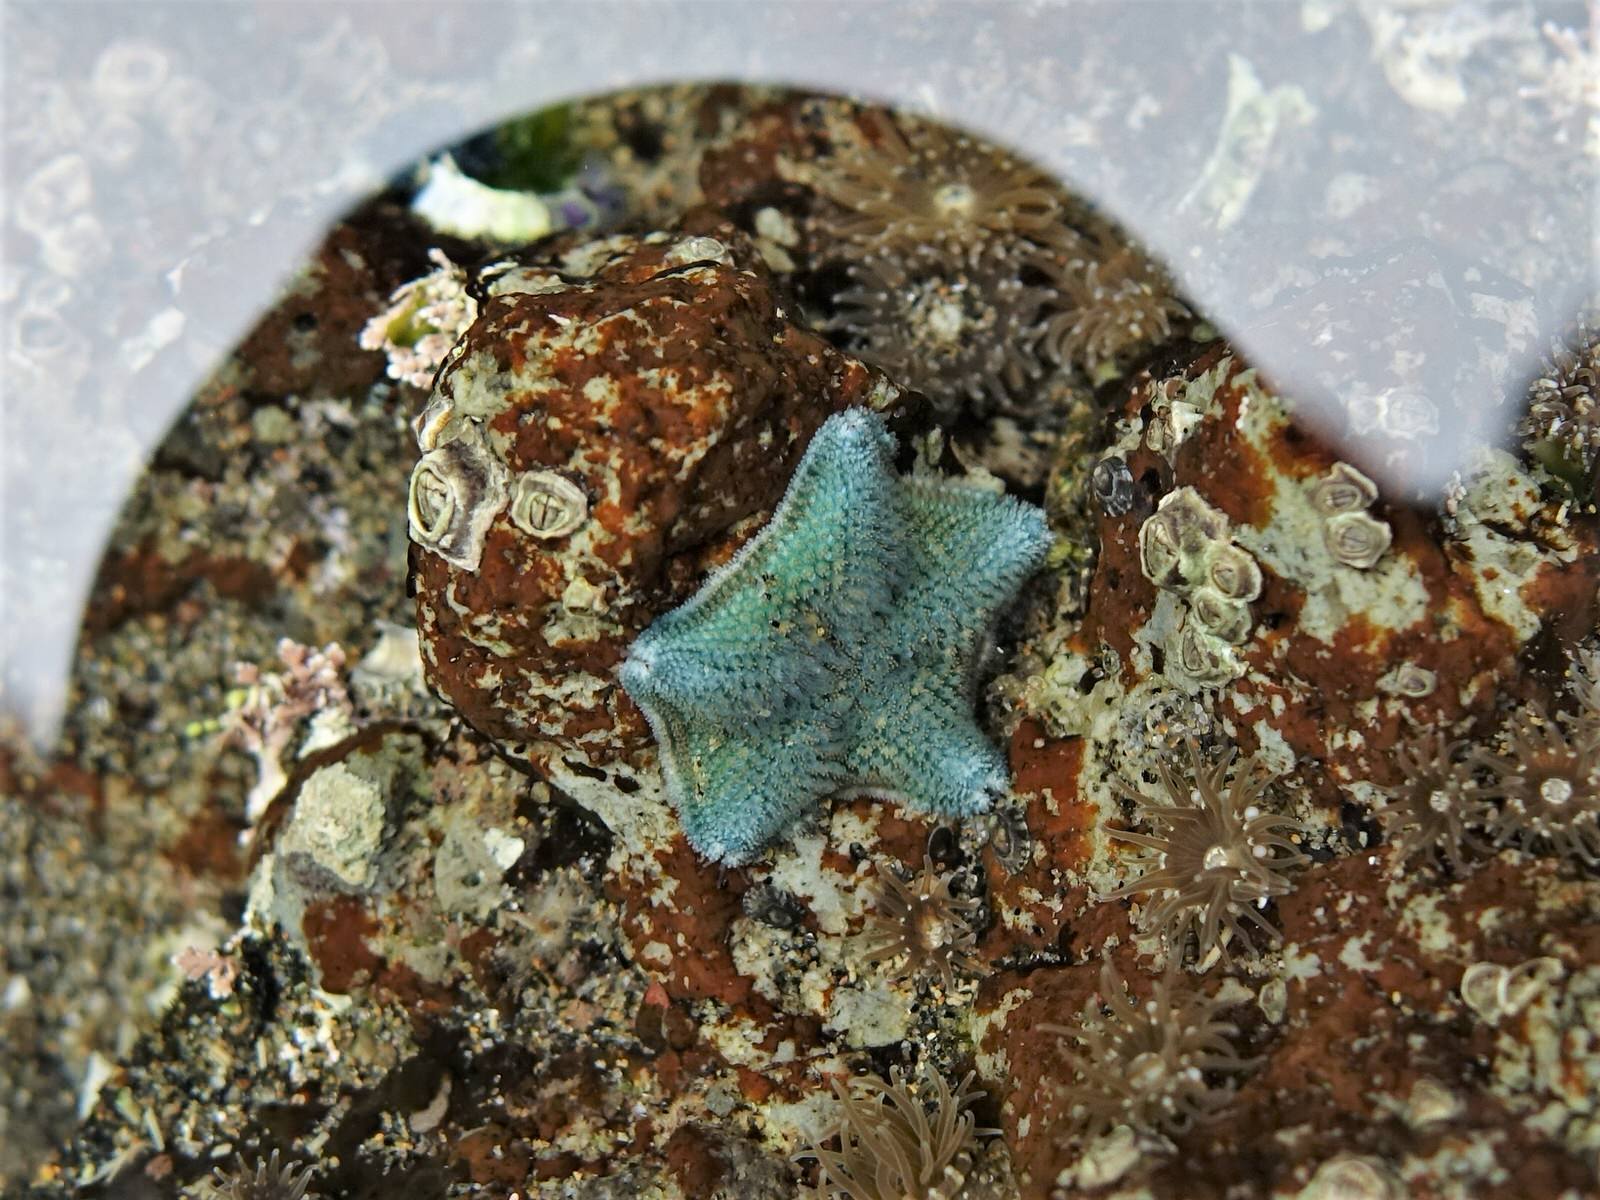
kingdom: Animalia
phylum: Echinodermata
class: Asteroidea
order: Valvatida
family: Asterinidae
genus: Patiriella
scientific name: Patiriella regularis
